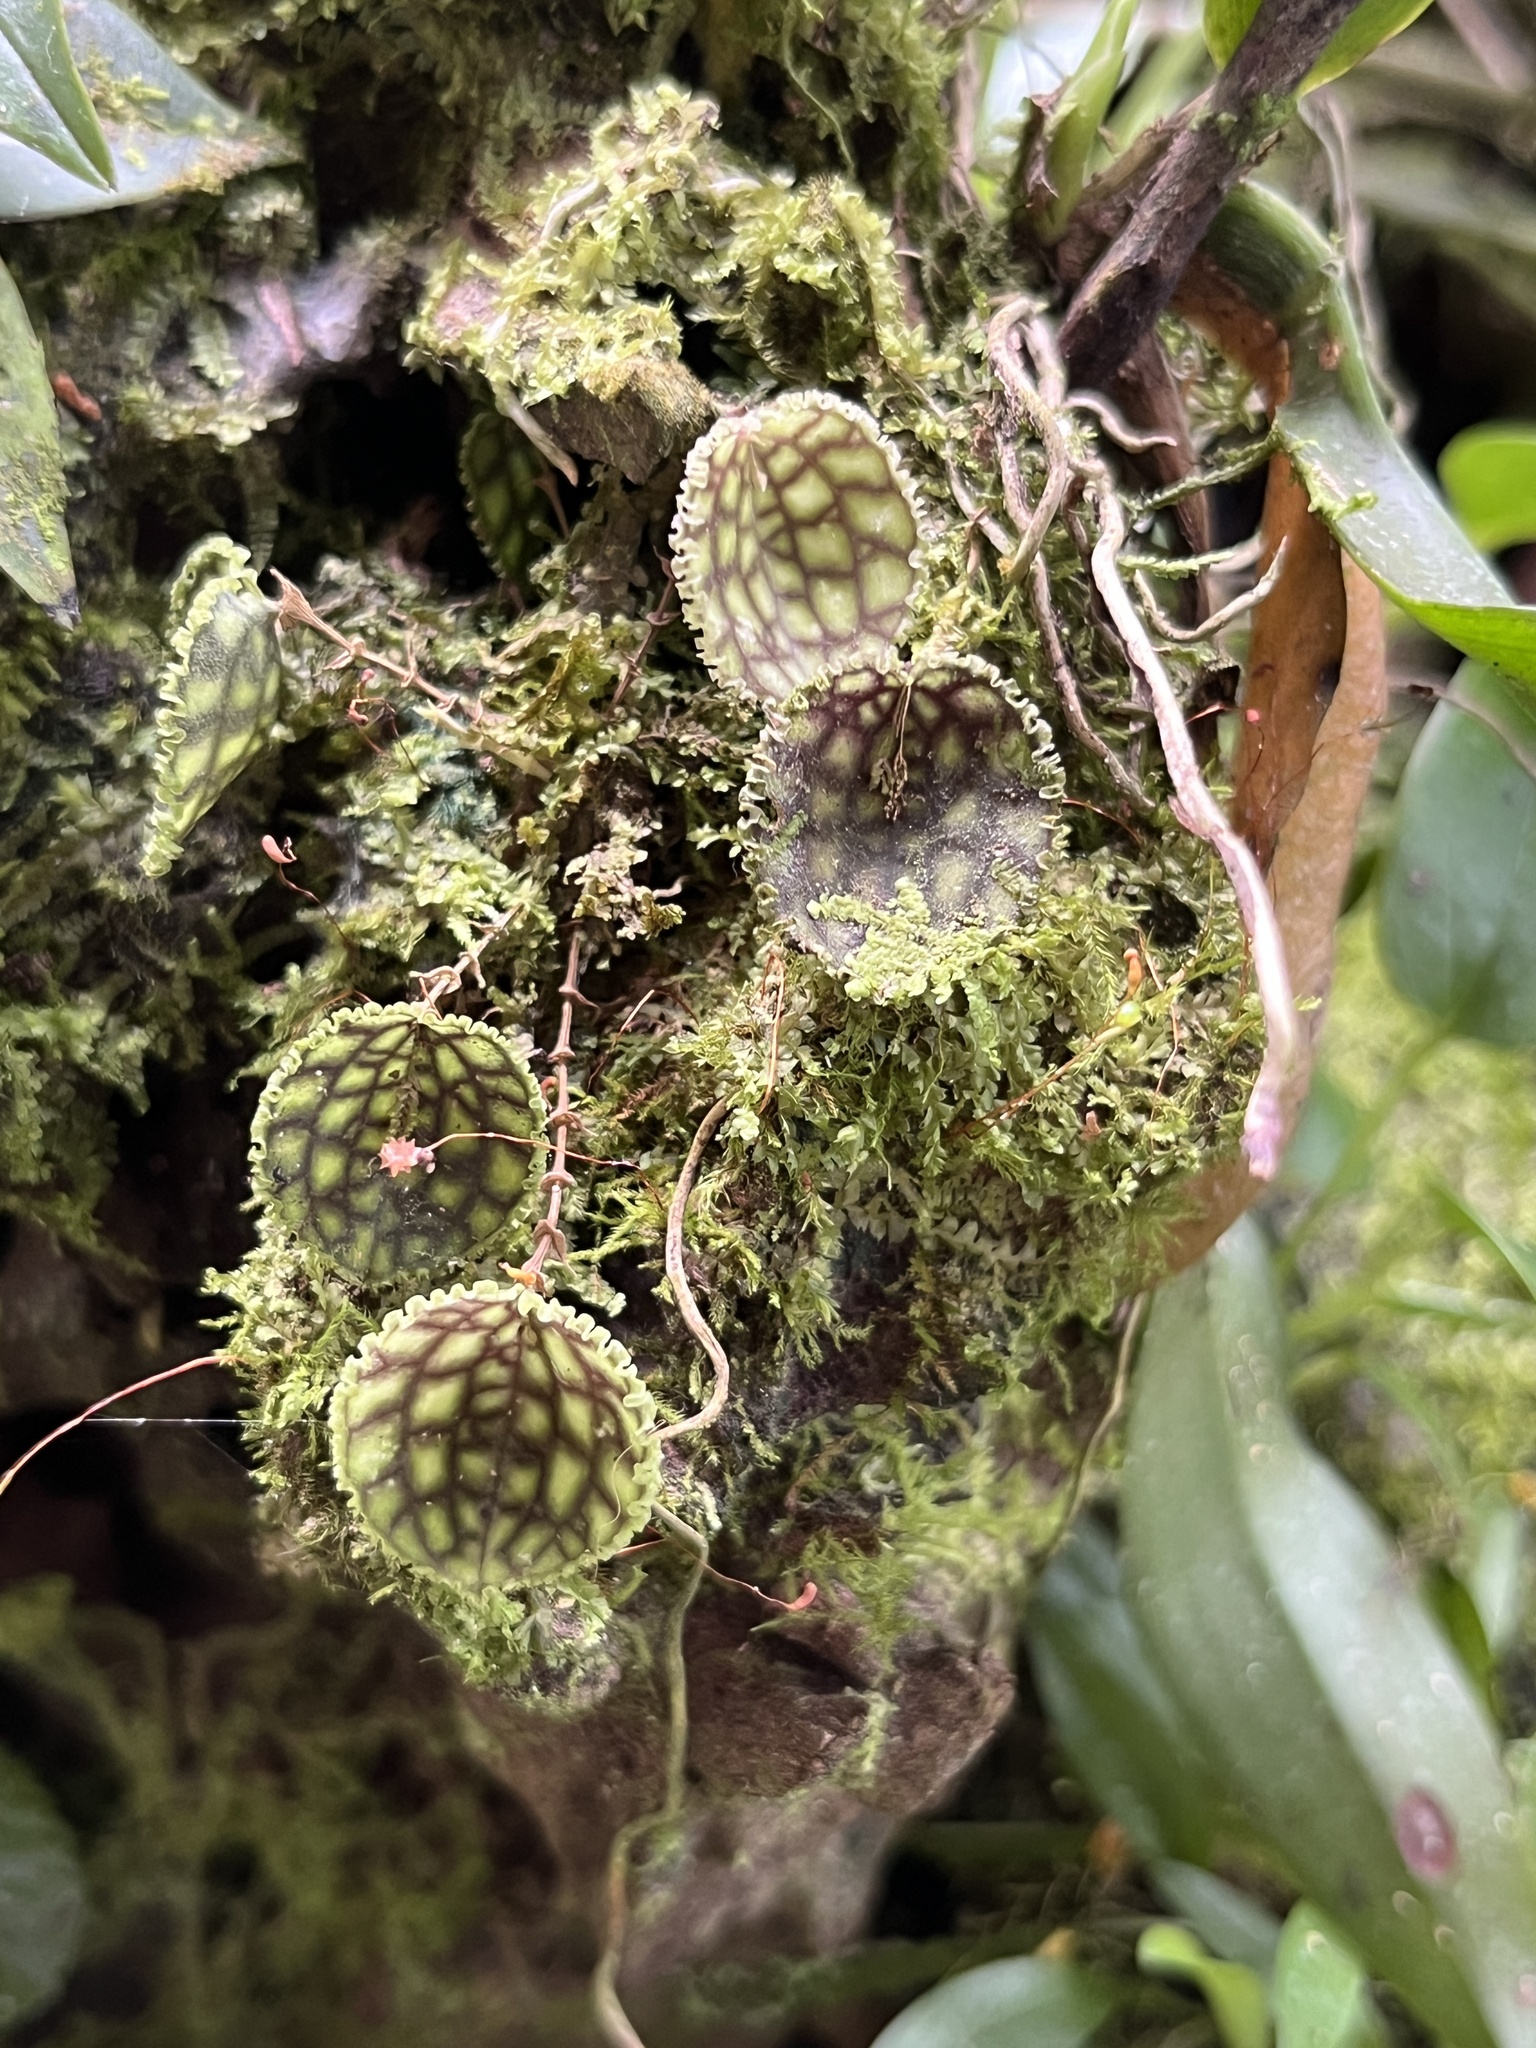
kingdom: Plantae
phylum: Tracheophyta
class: Liliopsida
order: Asparagales
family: Orchidaceae
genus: Lepanthes
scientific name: Lepanthes calodictyon
